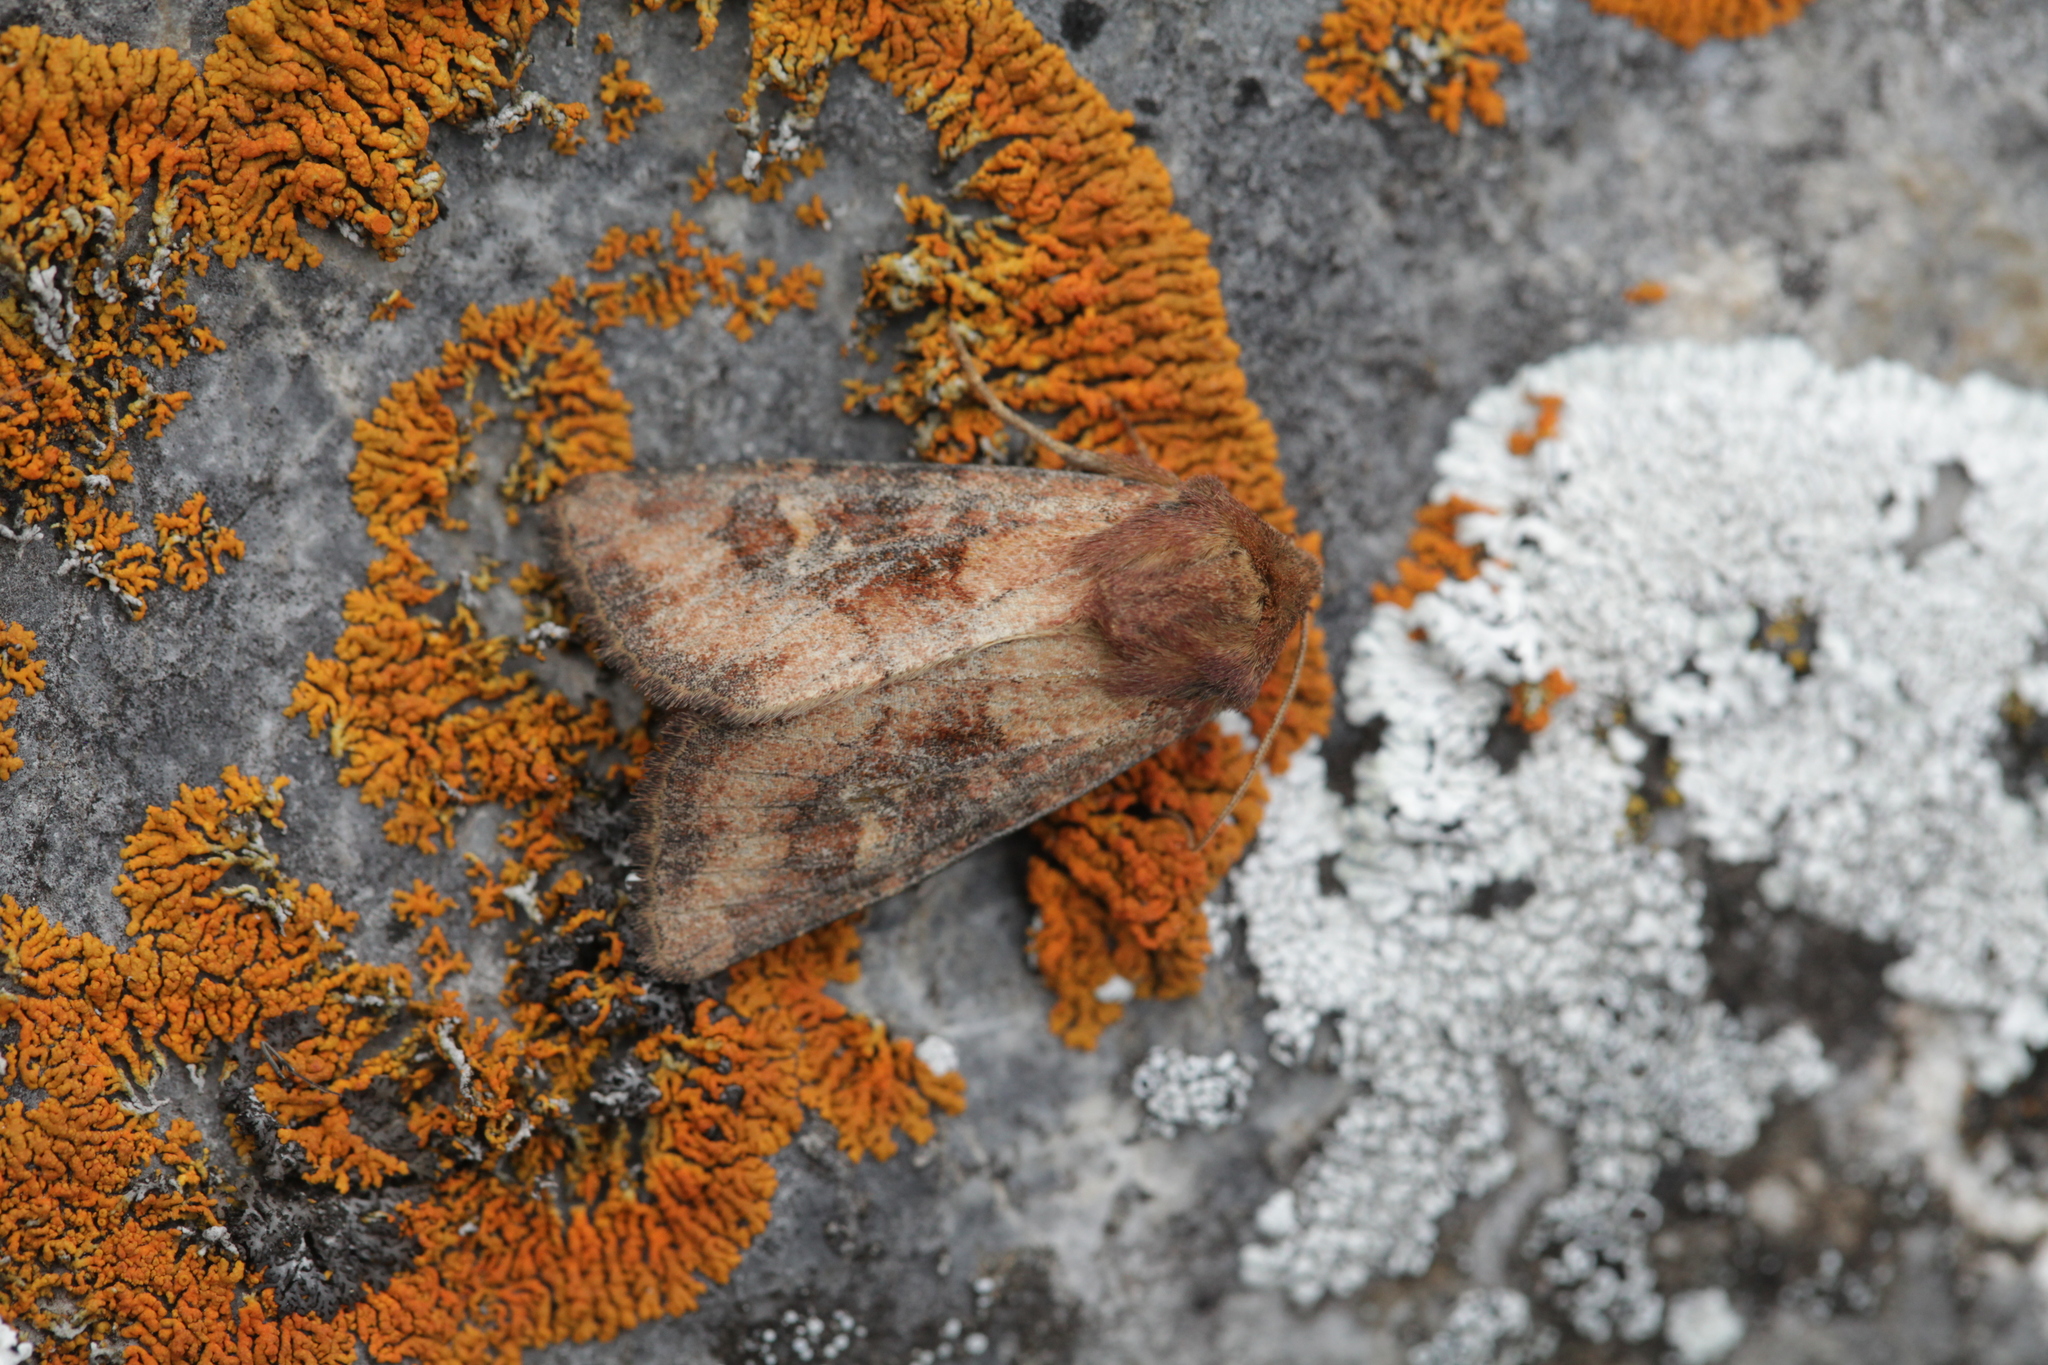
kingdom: Animalia
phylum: Arthropoda
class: Insecta
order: Lepidoptera
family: Noctuidae
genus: Resapamea
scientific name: Resapamea hedeni
